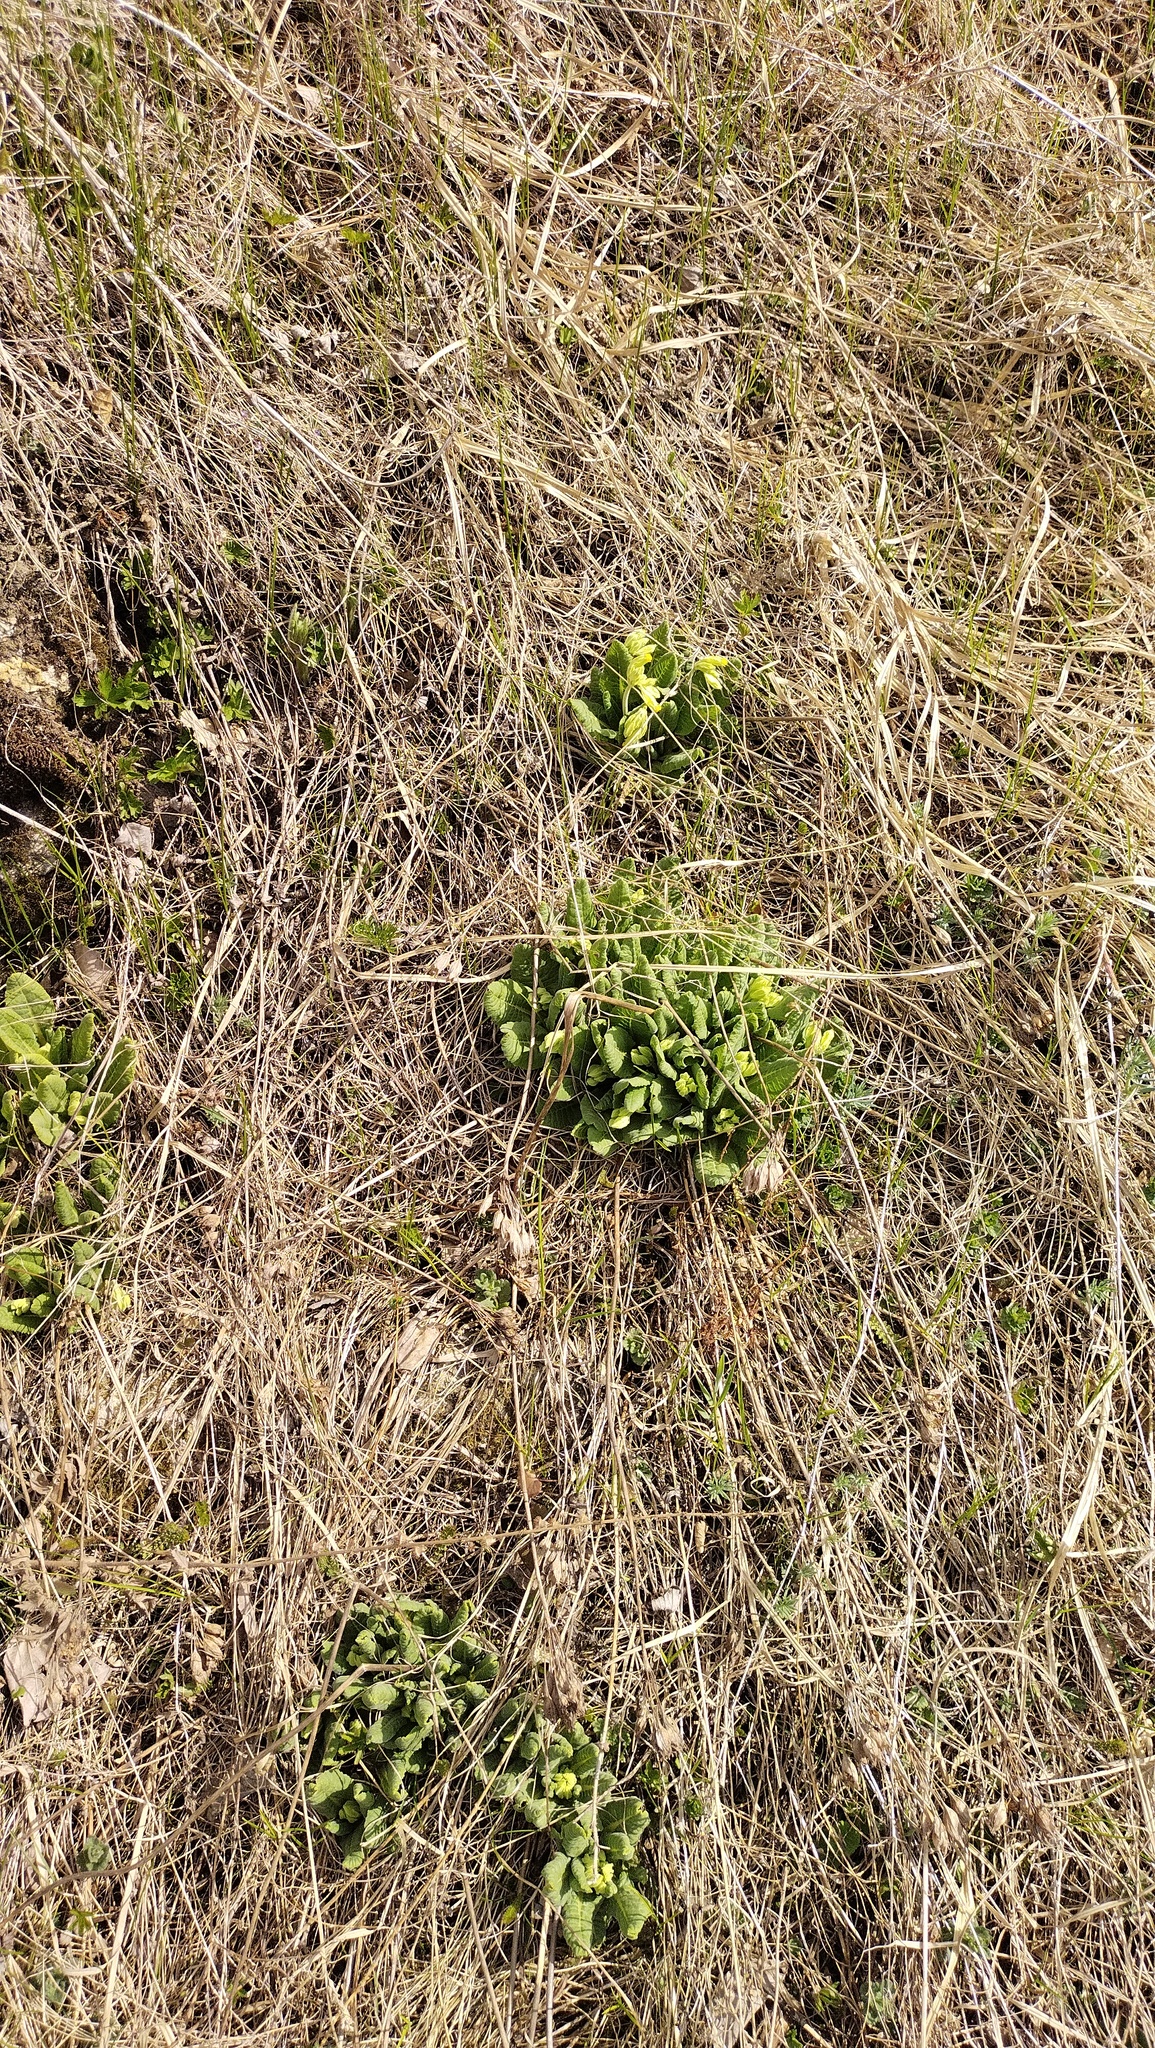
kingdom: Plantae
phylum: Tracheophyta
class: Magnoliopsida
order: Ericales
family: Primulaceae
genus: Primula
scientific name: Primula veris
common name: Cowslip
